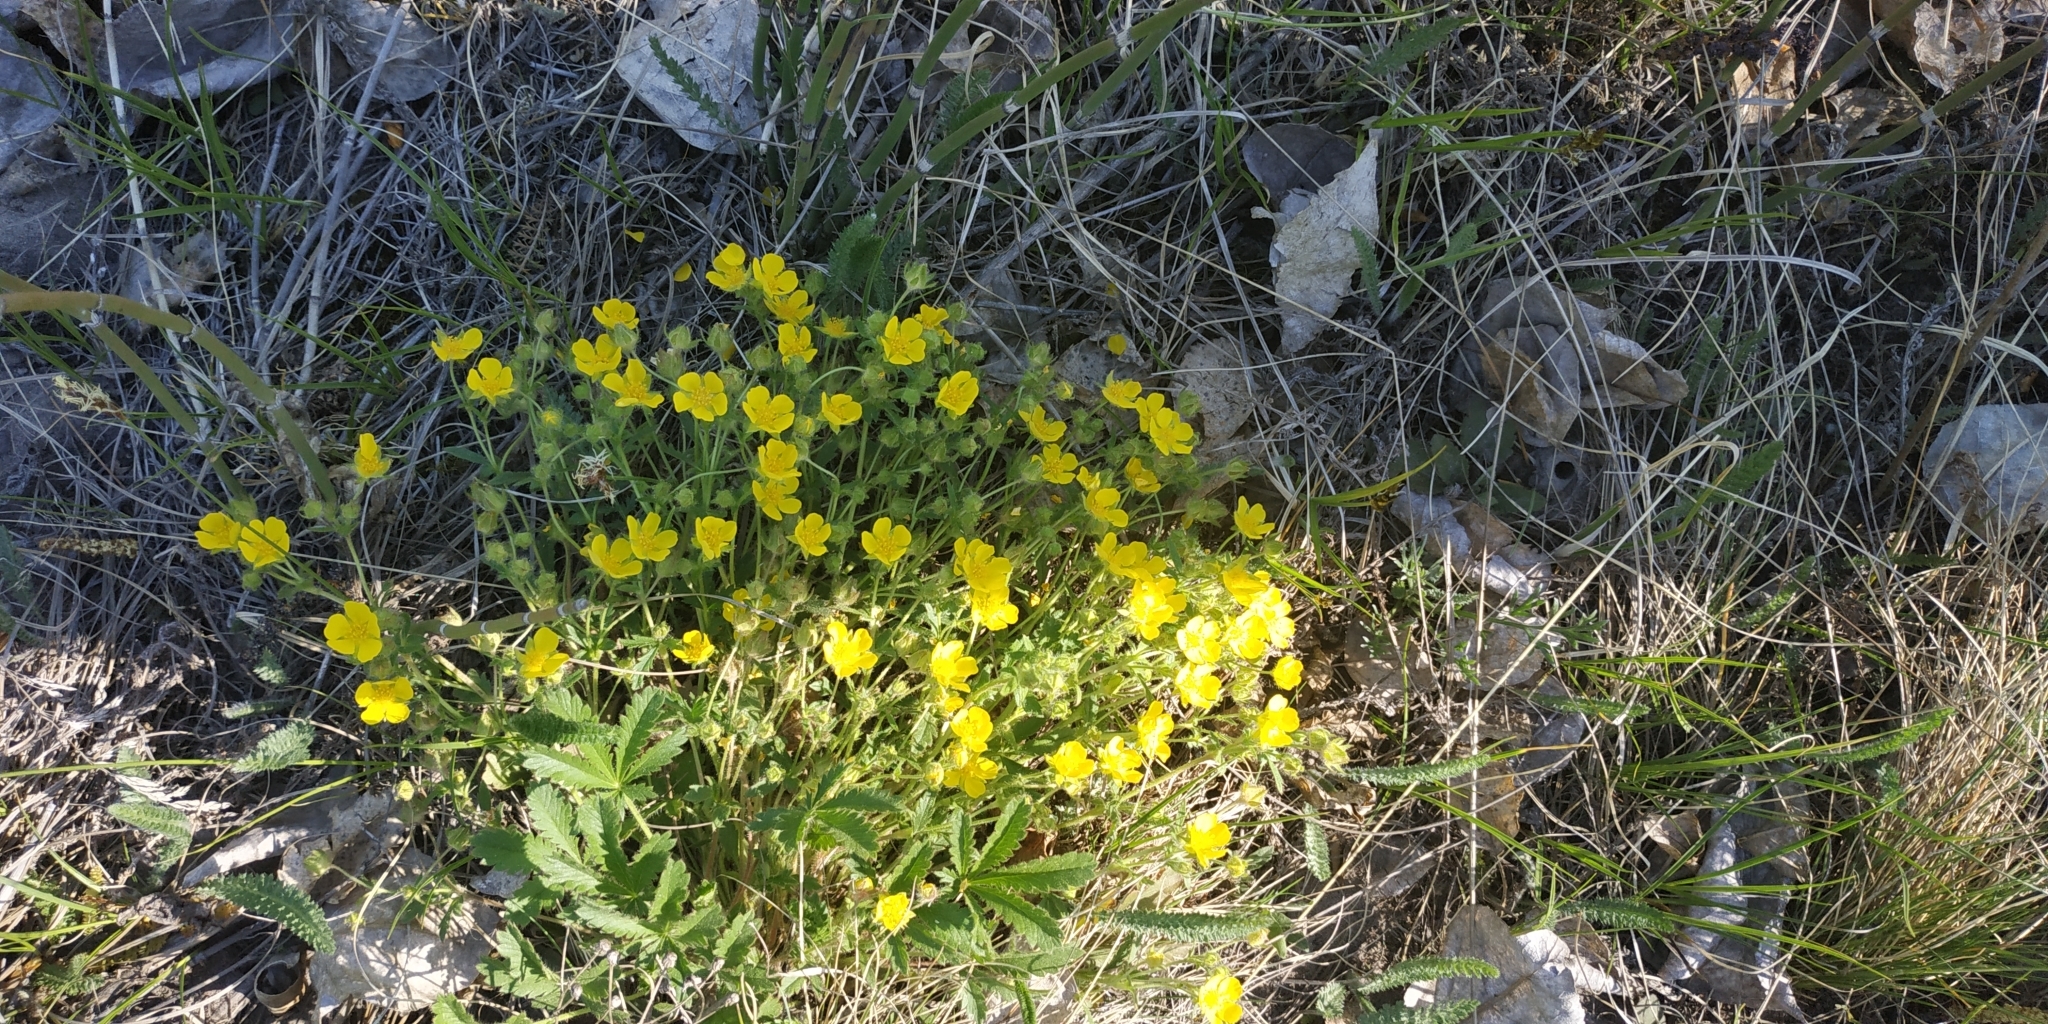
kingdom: Plantae
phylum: Tracheophyta
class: Magnoliopsida
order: Rosales
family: Rosaceae
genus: Potentilla
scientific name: Potentilla humifusa
